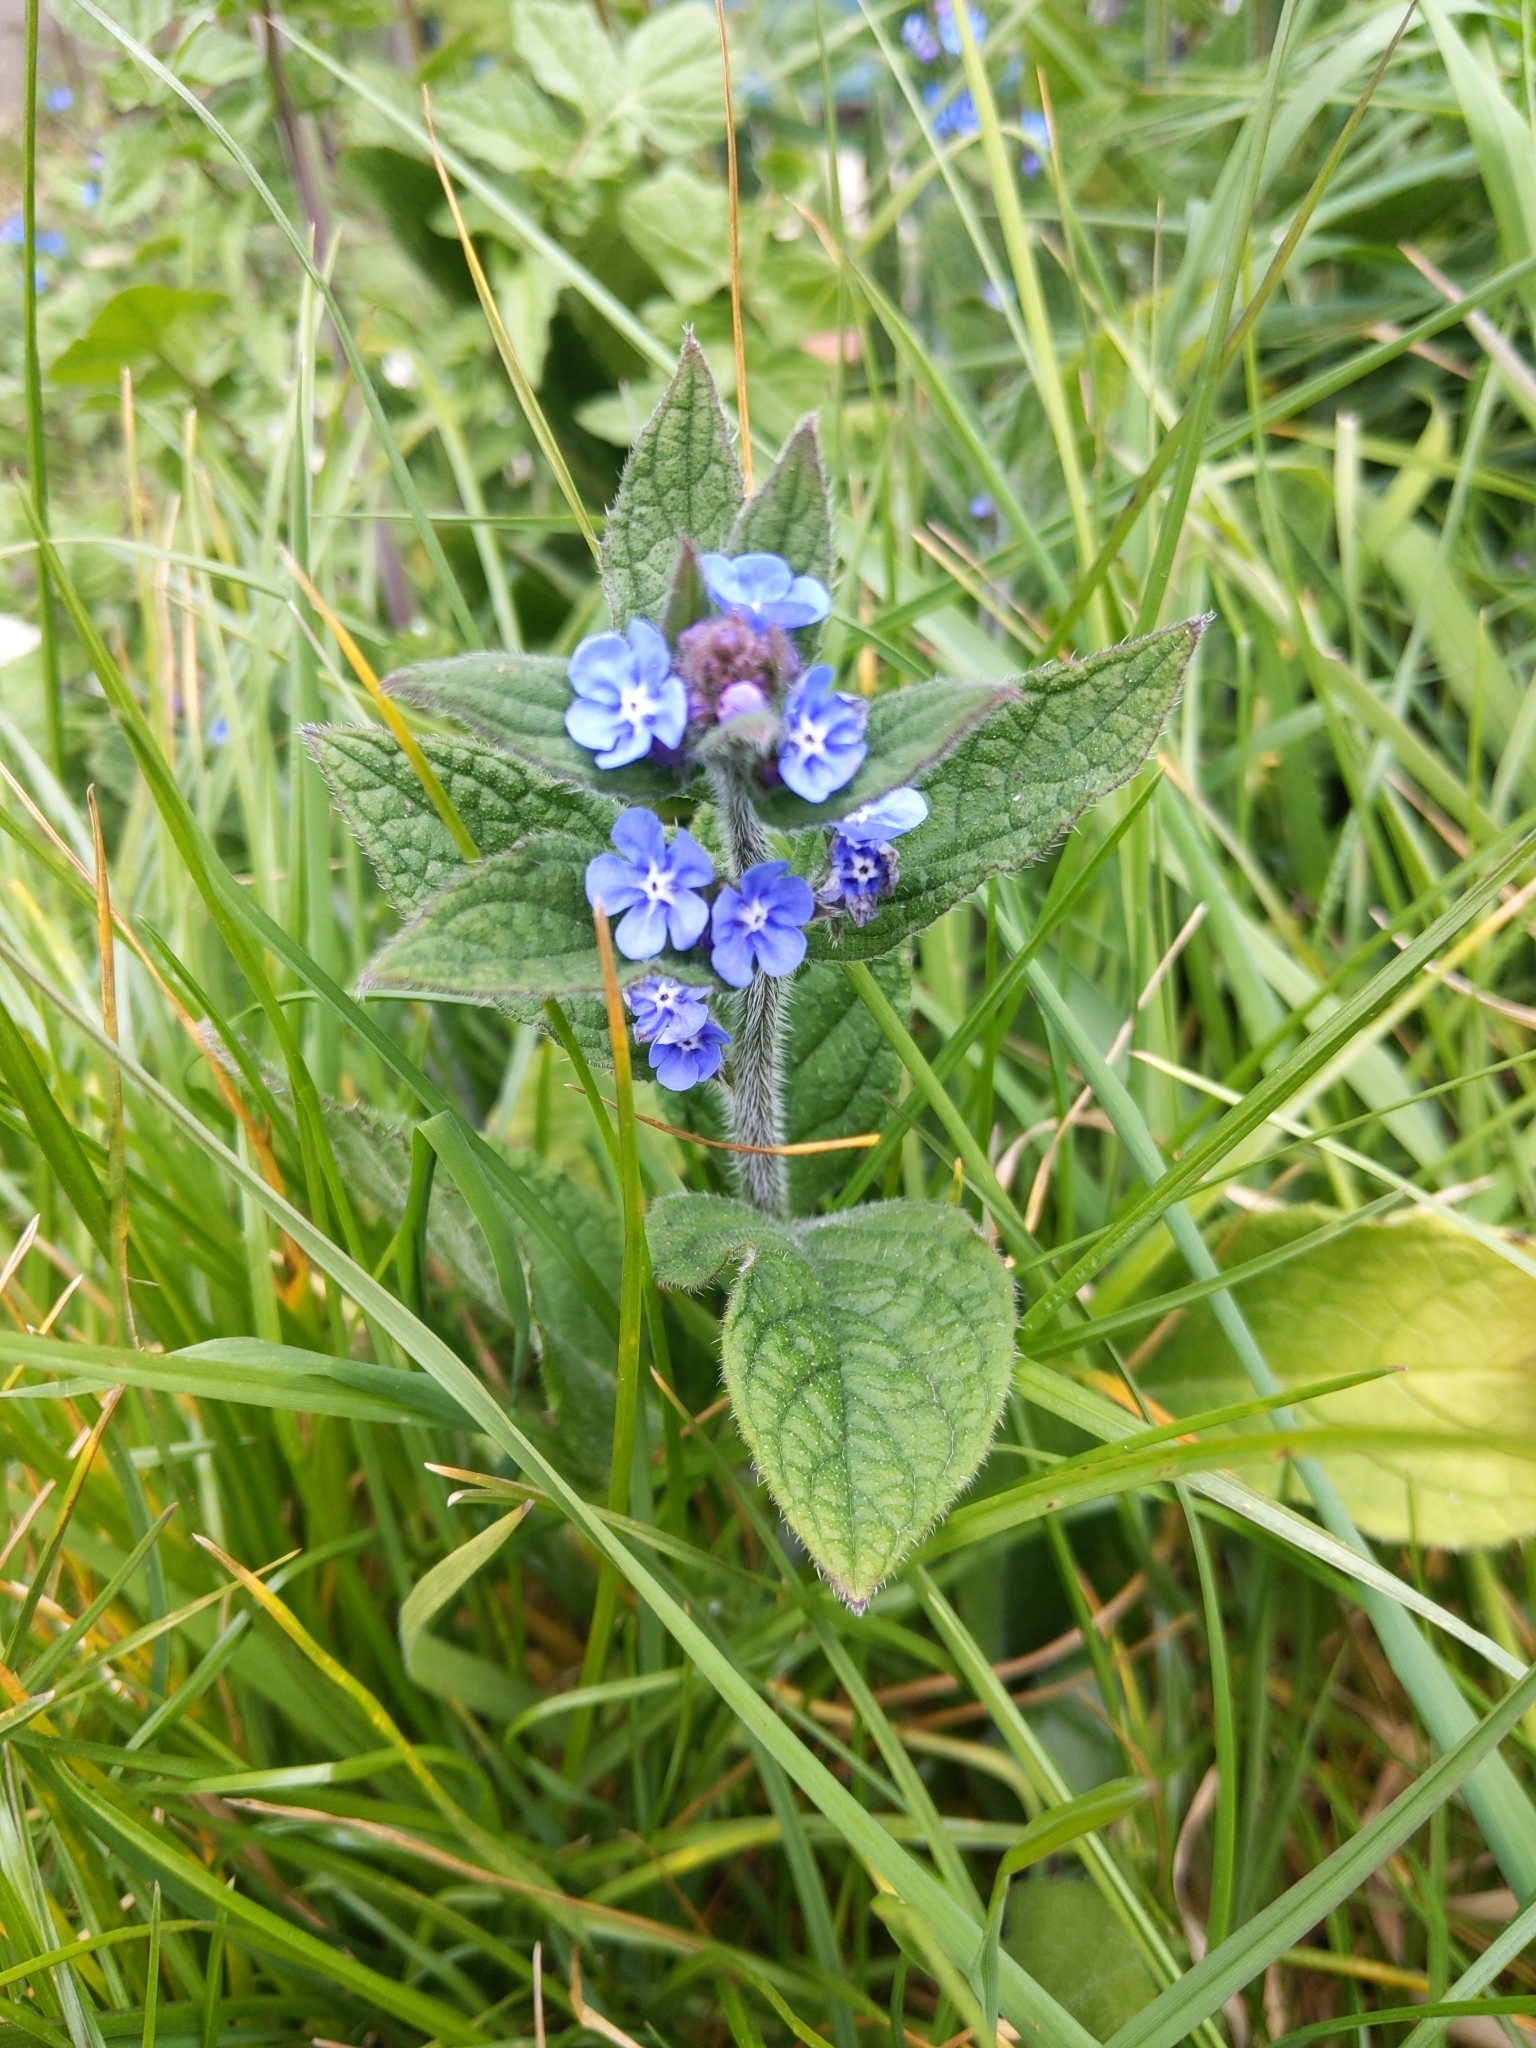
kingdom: Plantae
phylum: Tracheophyta
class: Magnoliopsida
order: Boraginales
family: Boraginaceae
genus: Pentaglottis
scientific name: Pentaglottis sempervirens
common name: Green alkanet
